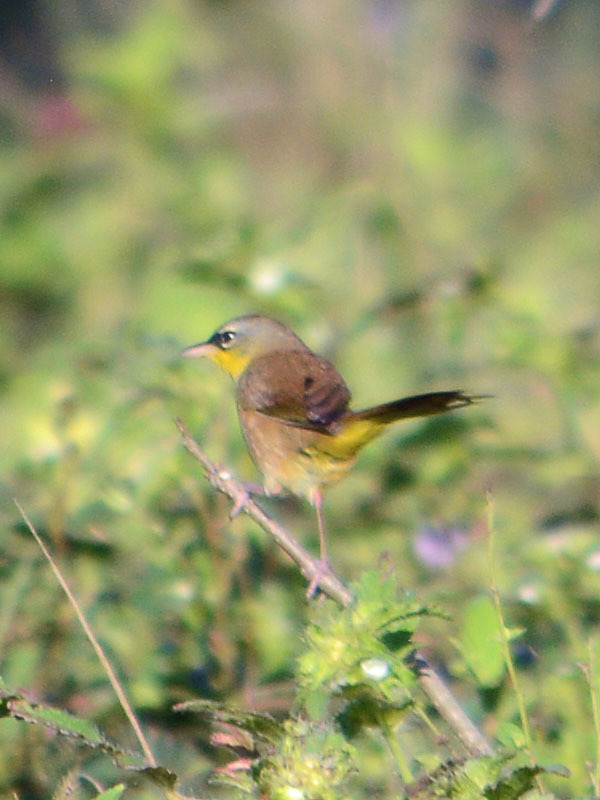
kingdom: Animalia
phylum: Chordata
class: Aves
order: Passeriformes
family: Parulidae
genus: Geothlypis
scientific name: Geothlypis poliocephala
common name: Gray-crowned yellowthroat
